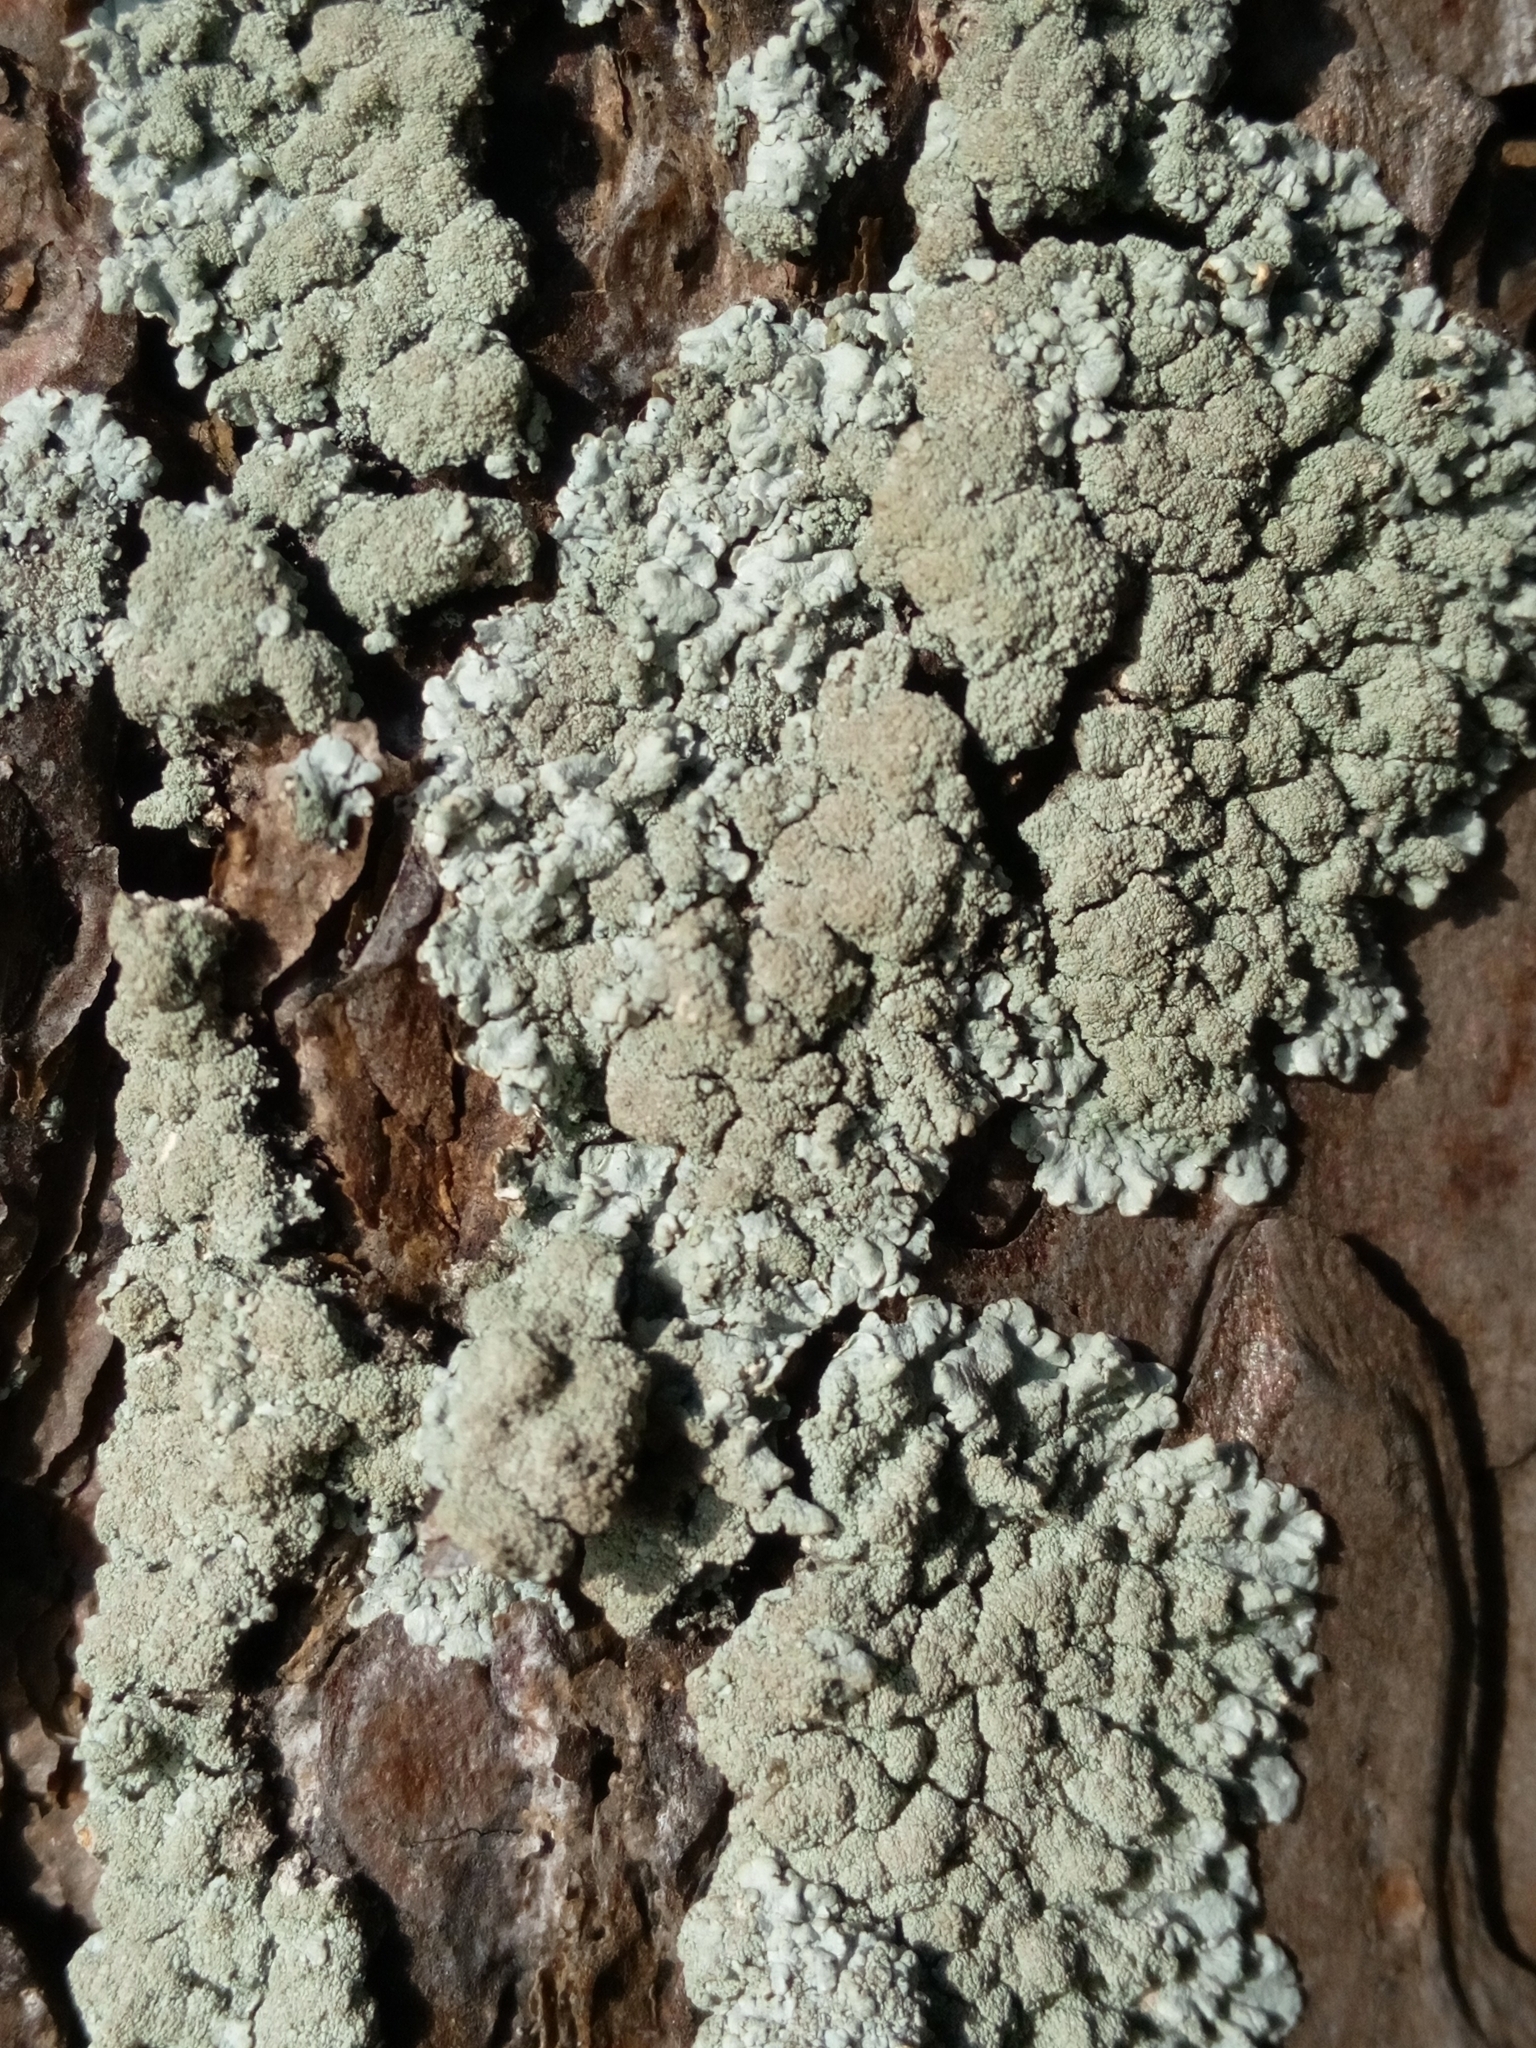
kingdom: Fungi
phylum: Ascomycota
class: Lecanoromycetes
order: Lecanorales
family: Parmeliaceae
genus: Imshaugia
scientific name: Imshaugia aleurites
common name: Salted starburst lichen
